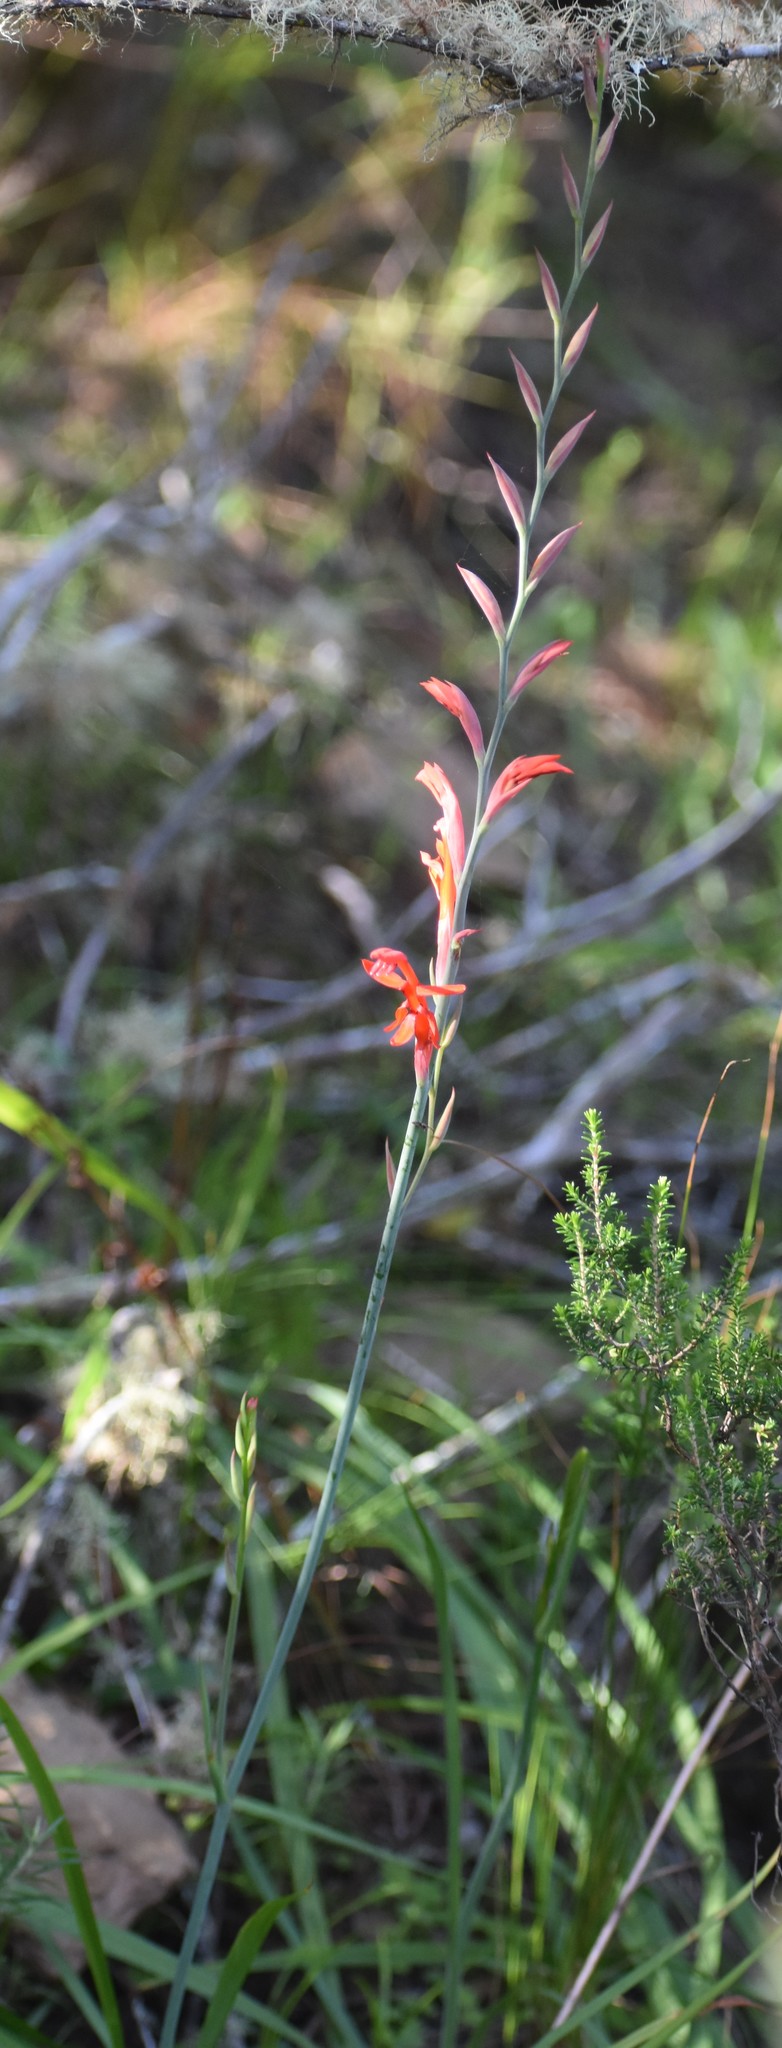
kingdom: Plantae
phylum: Tracheophyta
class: Liliopsida
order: Asparagales
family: Iridaceae
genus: Chasmanthe
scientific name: Chasmanthe aethiopica
